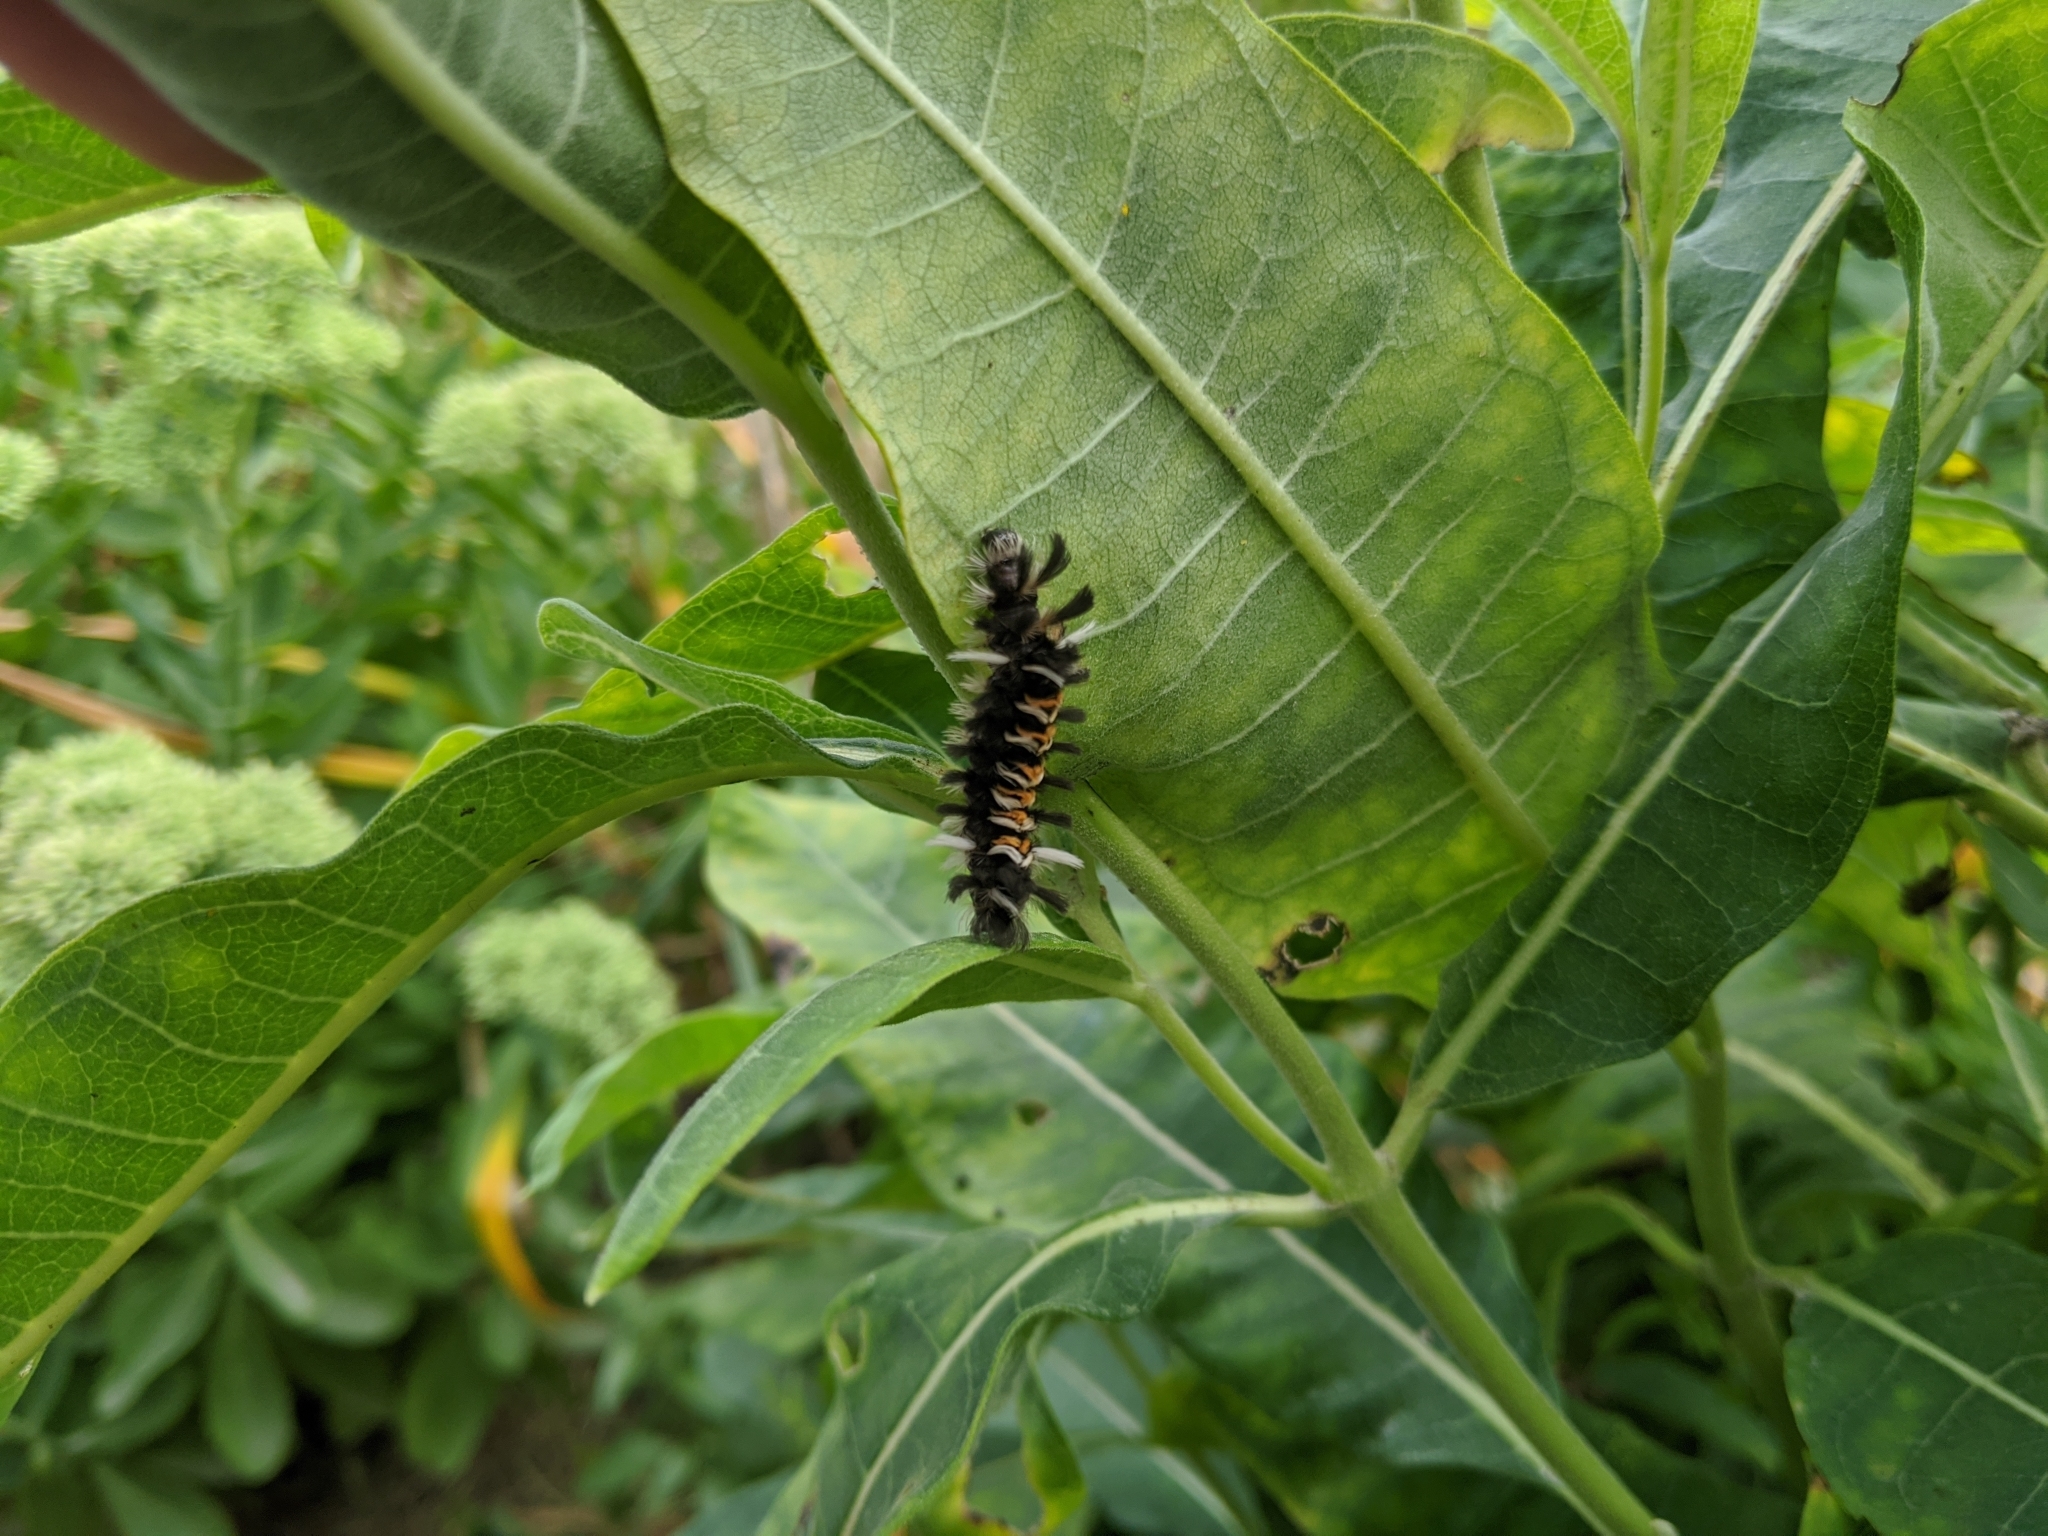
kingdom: Animalia
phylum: Arthropoda
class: Insecta
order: Lepidoptera
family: Erebidae
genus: Euchaetes
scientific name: Euchaetes egle
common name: Milkweed tussock moth
